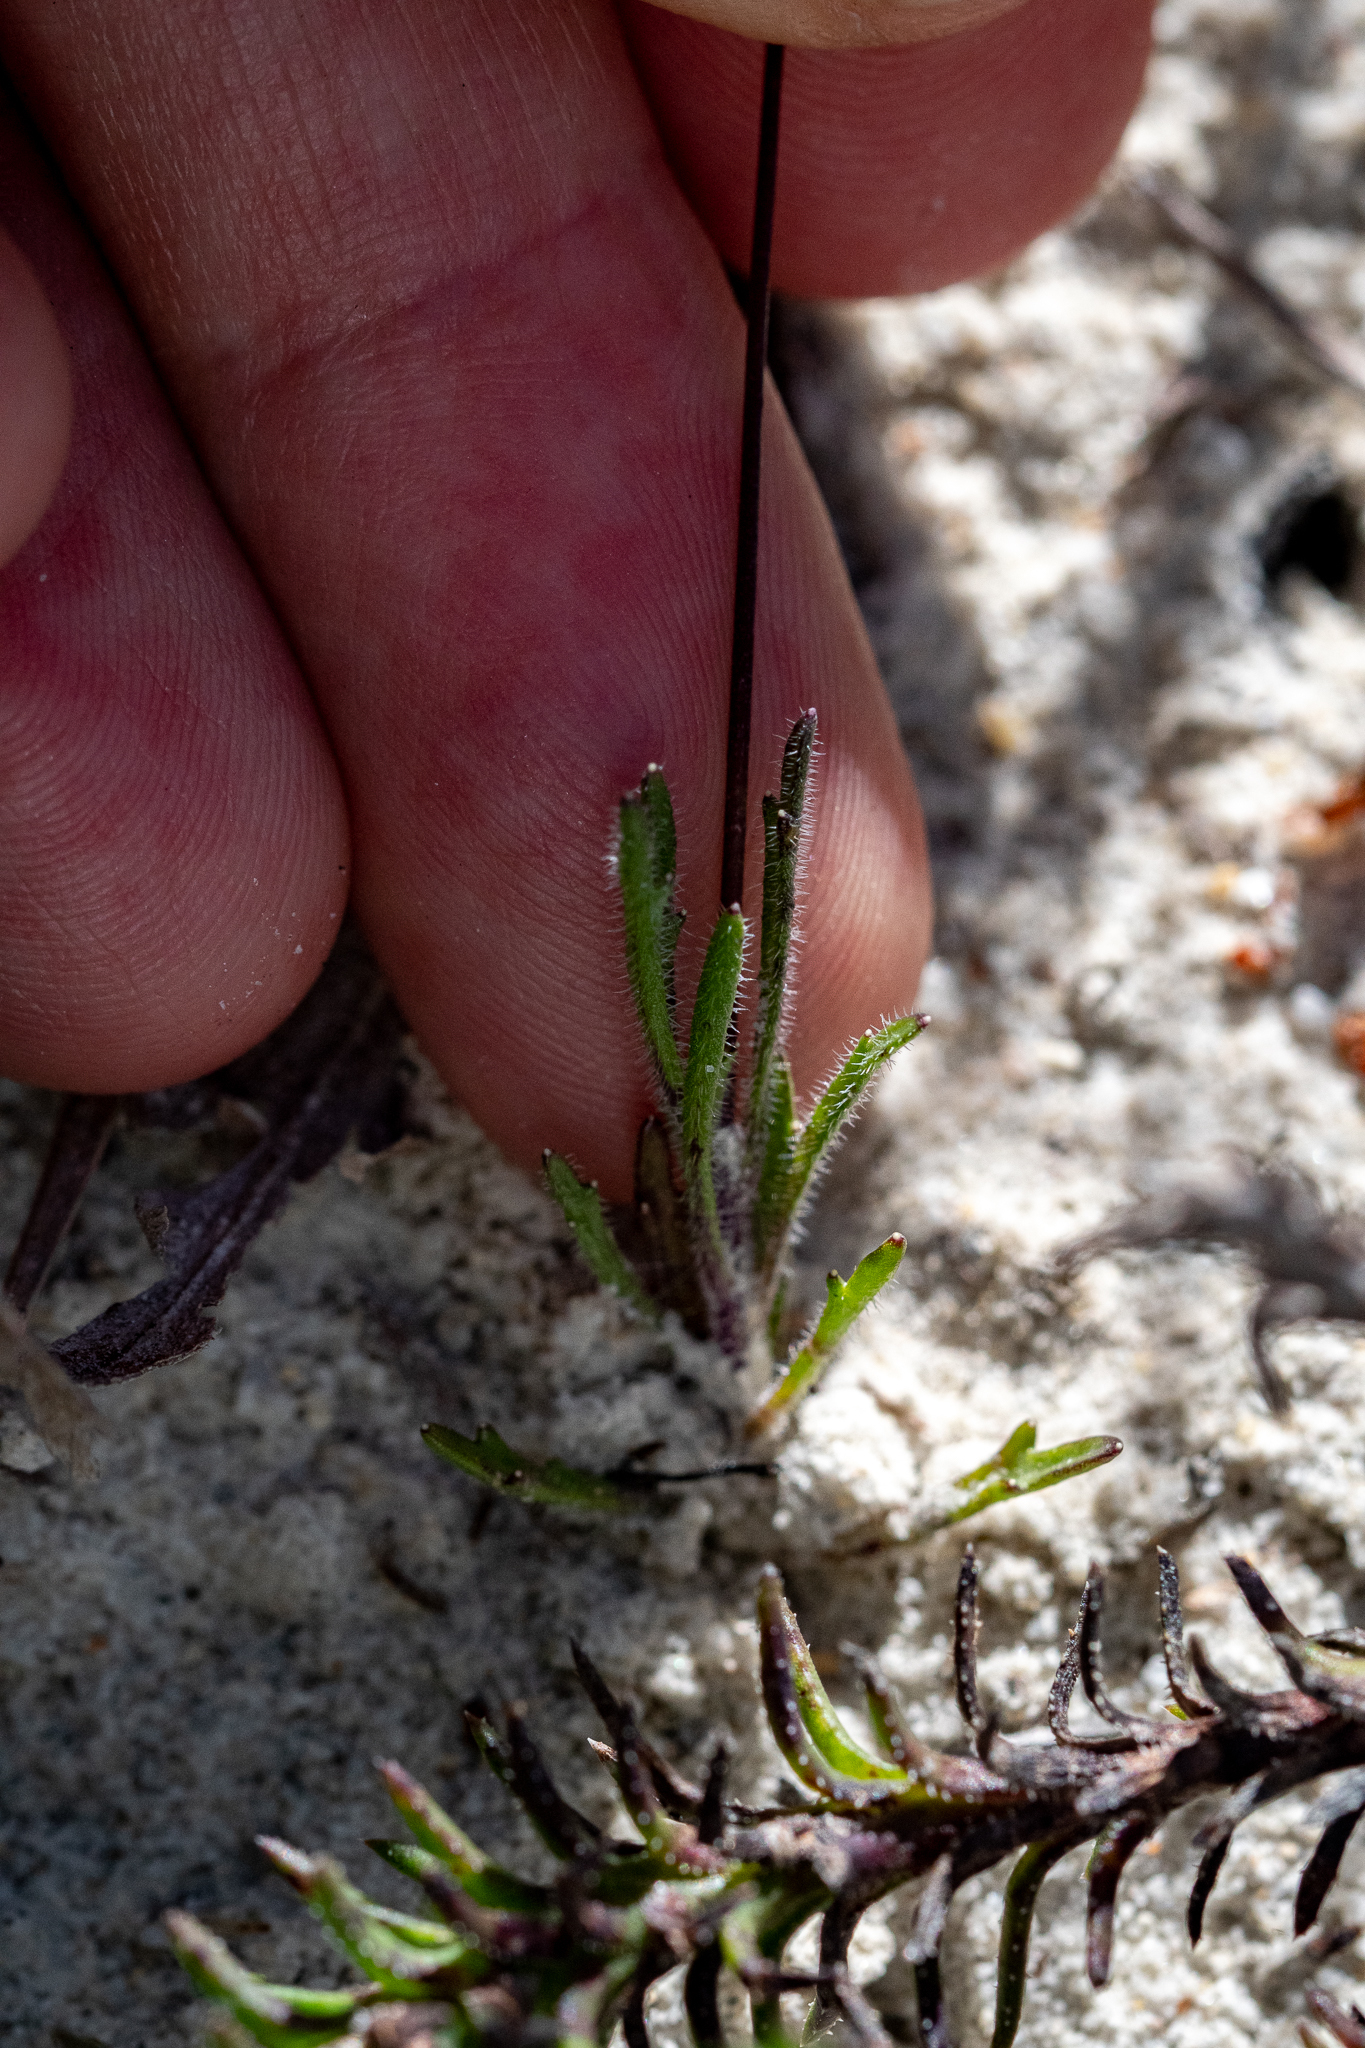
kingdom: Plantae
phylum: Tracheophyta
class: Magnoliopsida
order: Asterales
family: Campanulaceae
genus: Lobelia
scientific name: Lobelia chamaepitys
